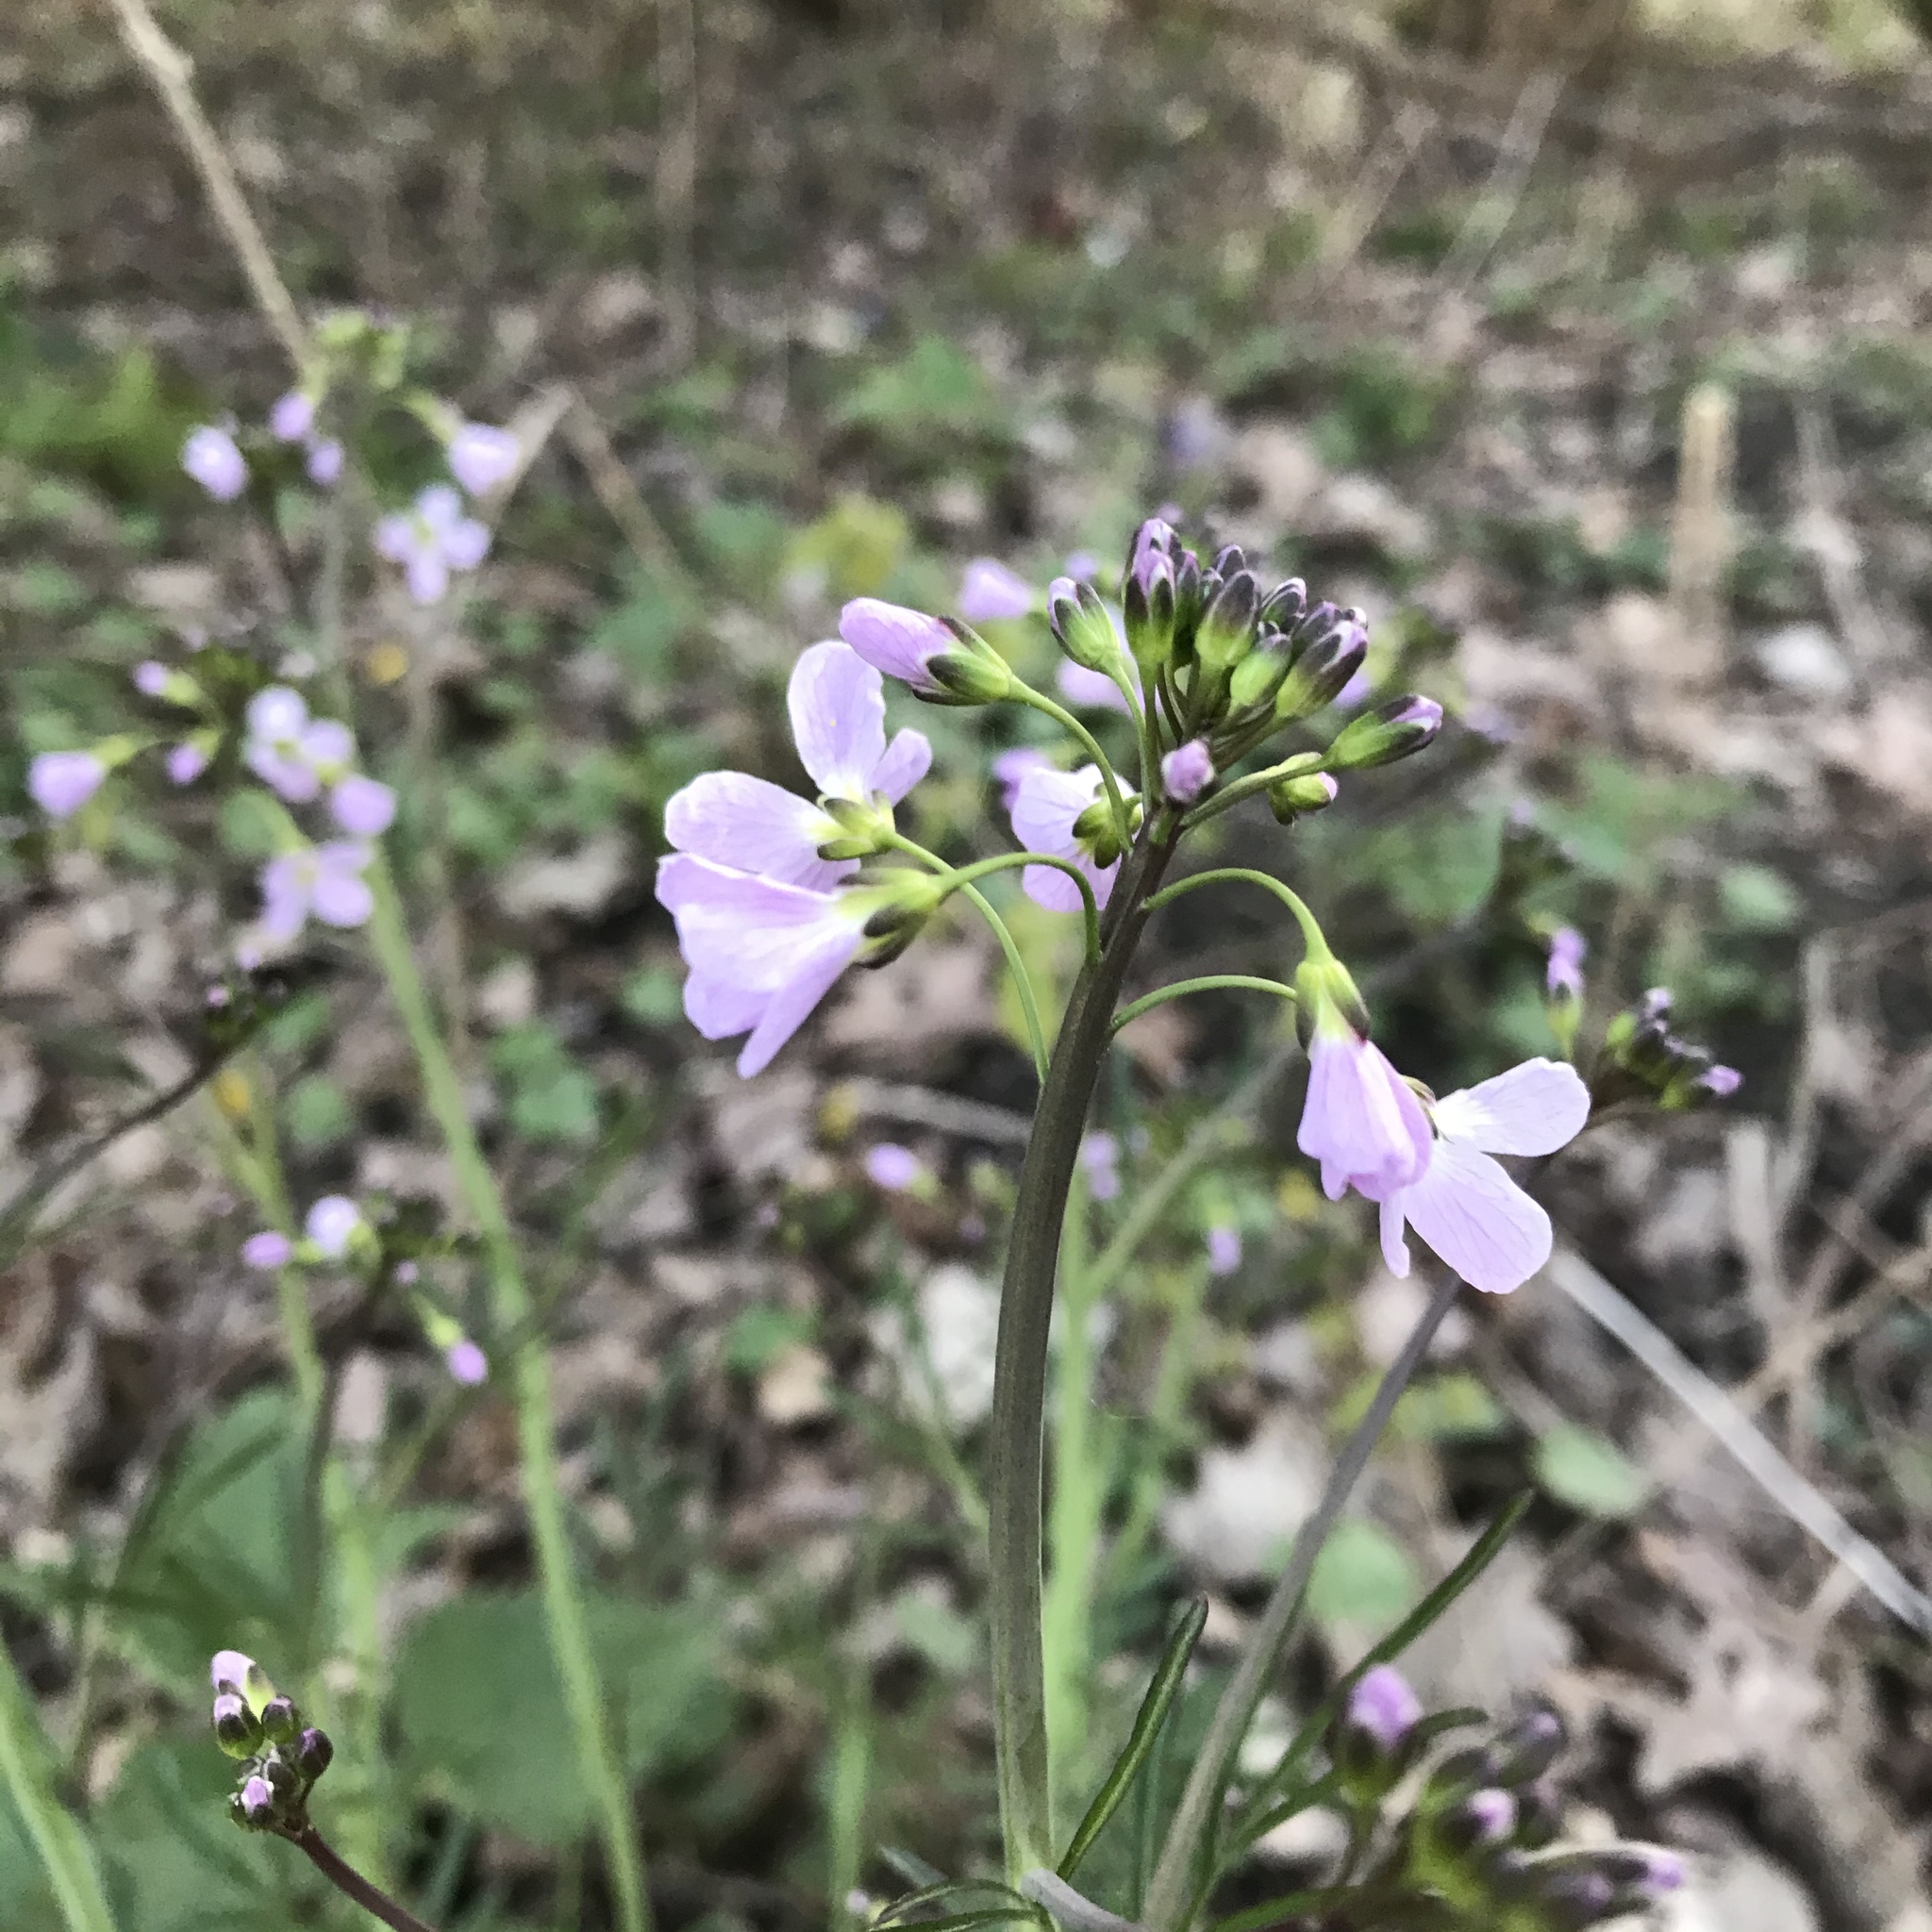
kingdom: Plantae
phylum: Tracheophyta
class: Magnoliopsida
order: Brassicales
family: Brassicaceae
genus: Cardamine
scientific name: Cardamine pratensis
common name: Cuckoo flower
